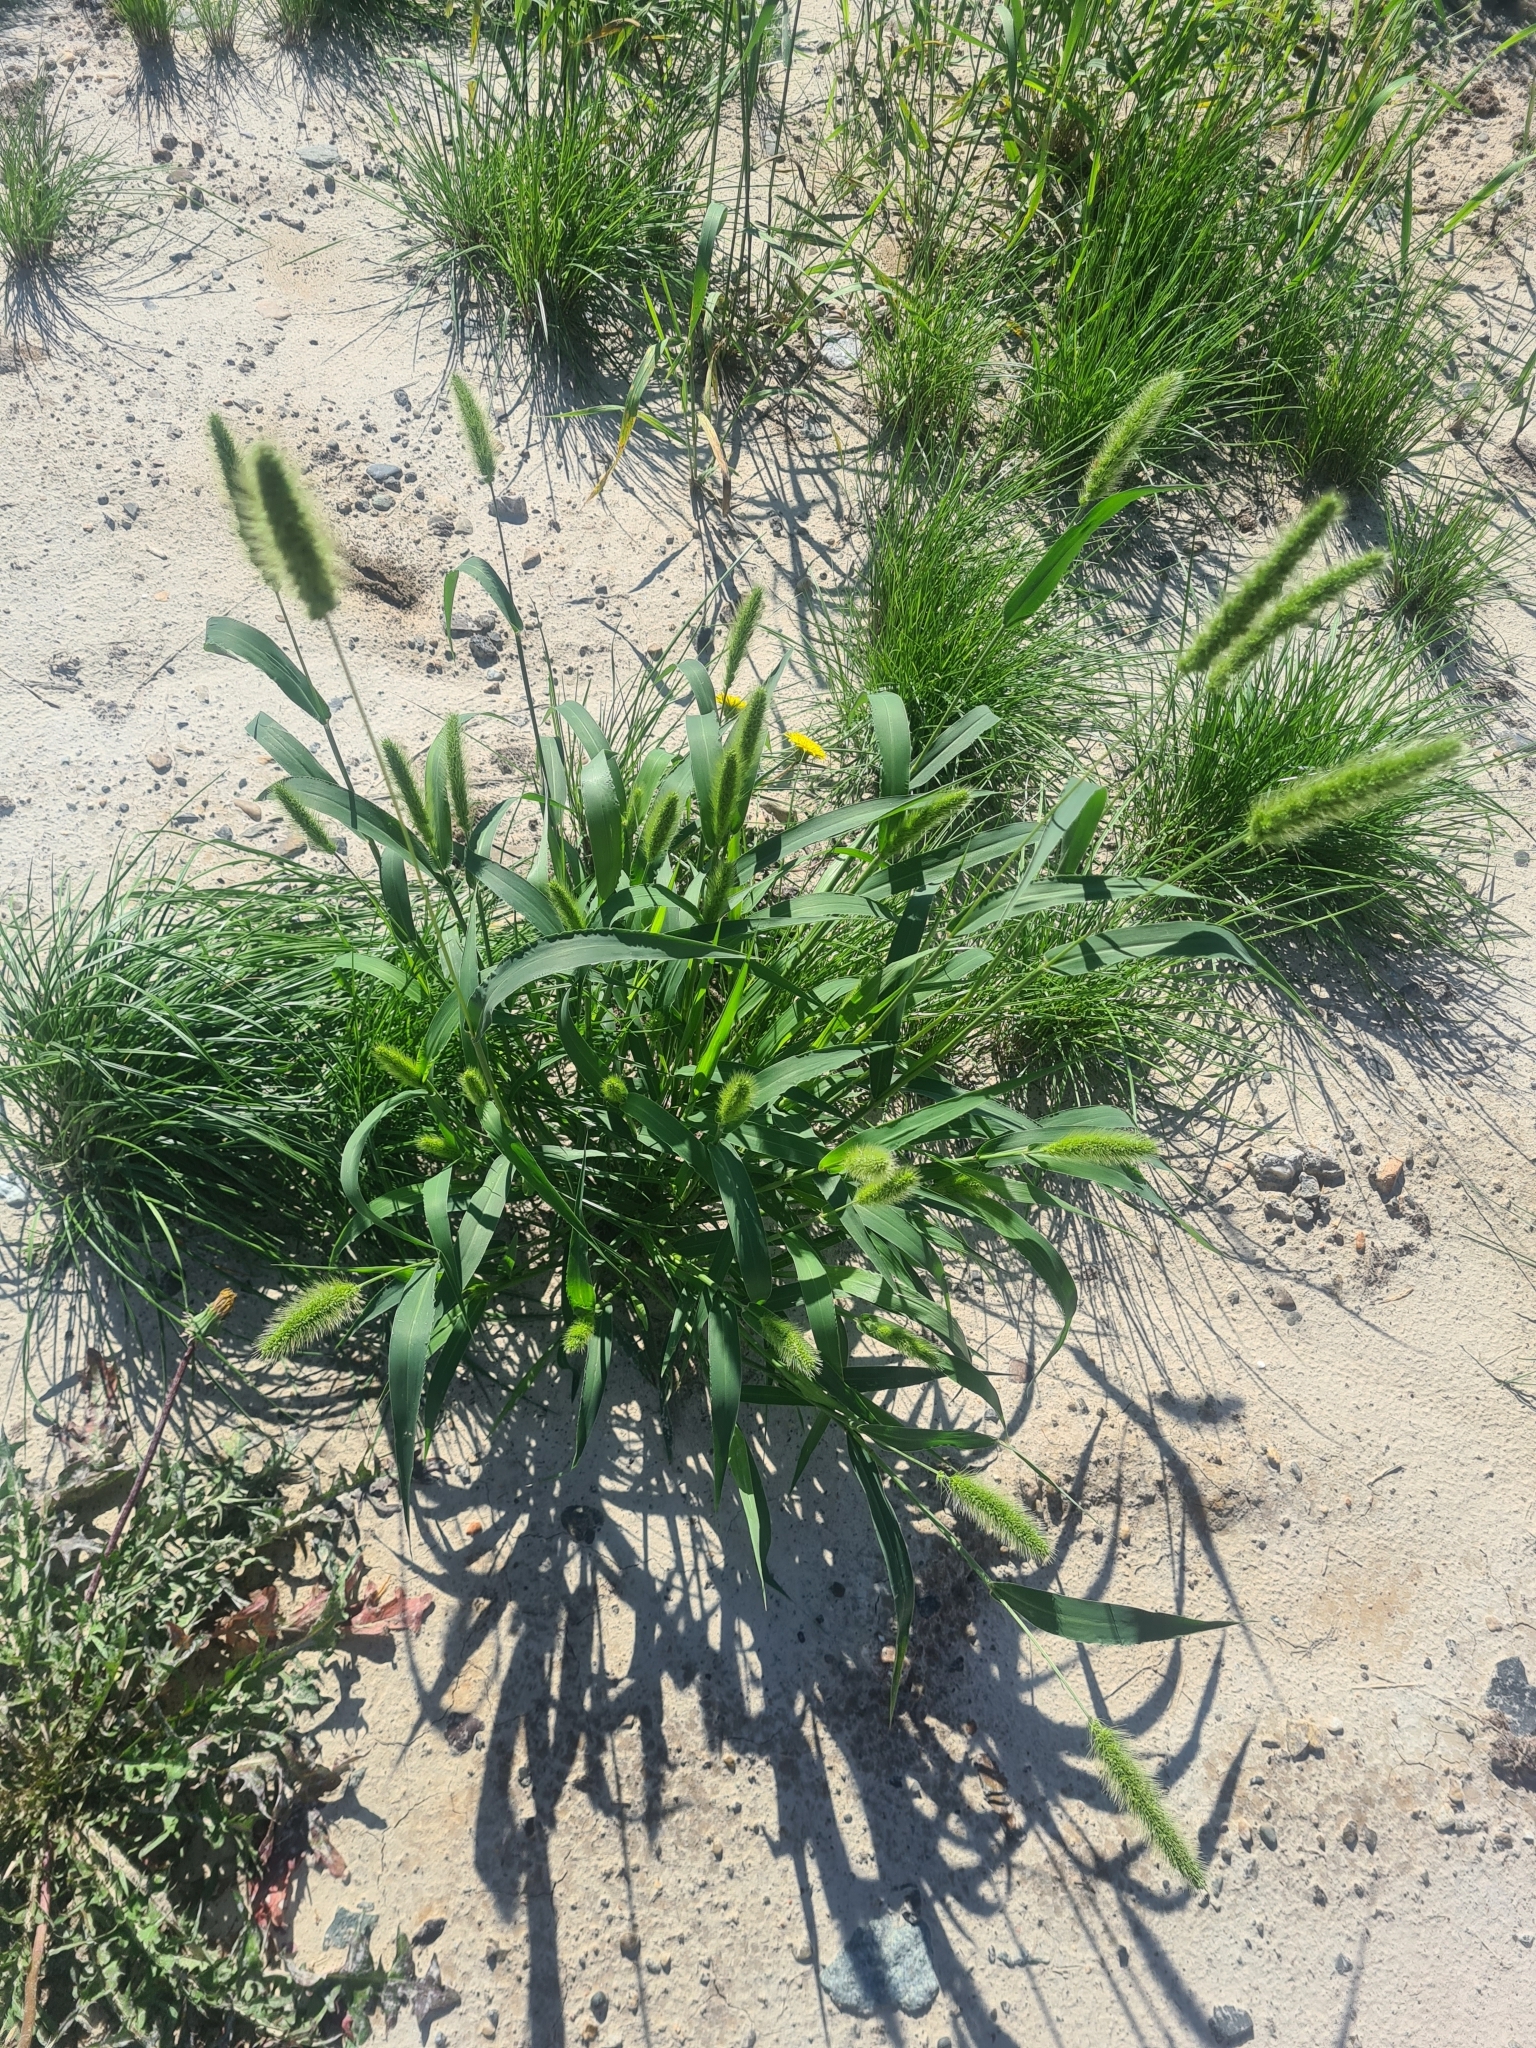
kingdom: Plantae
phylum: Tracheophyta
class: Liliopsida
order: Poales
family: Poaceae
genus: Setaria
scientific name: Setaria viridis
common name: Green bristlegrass
